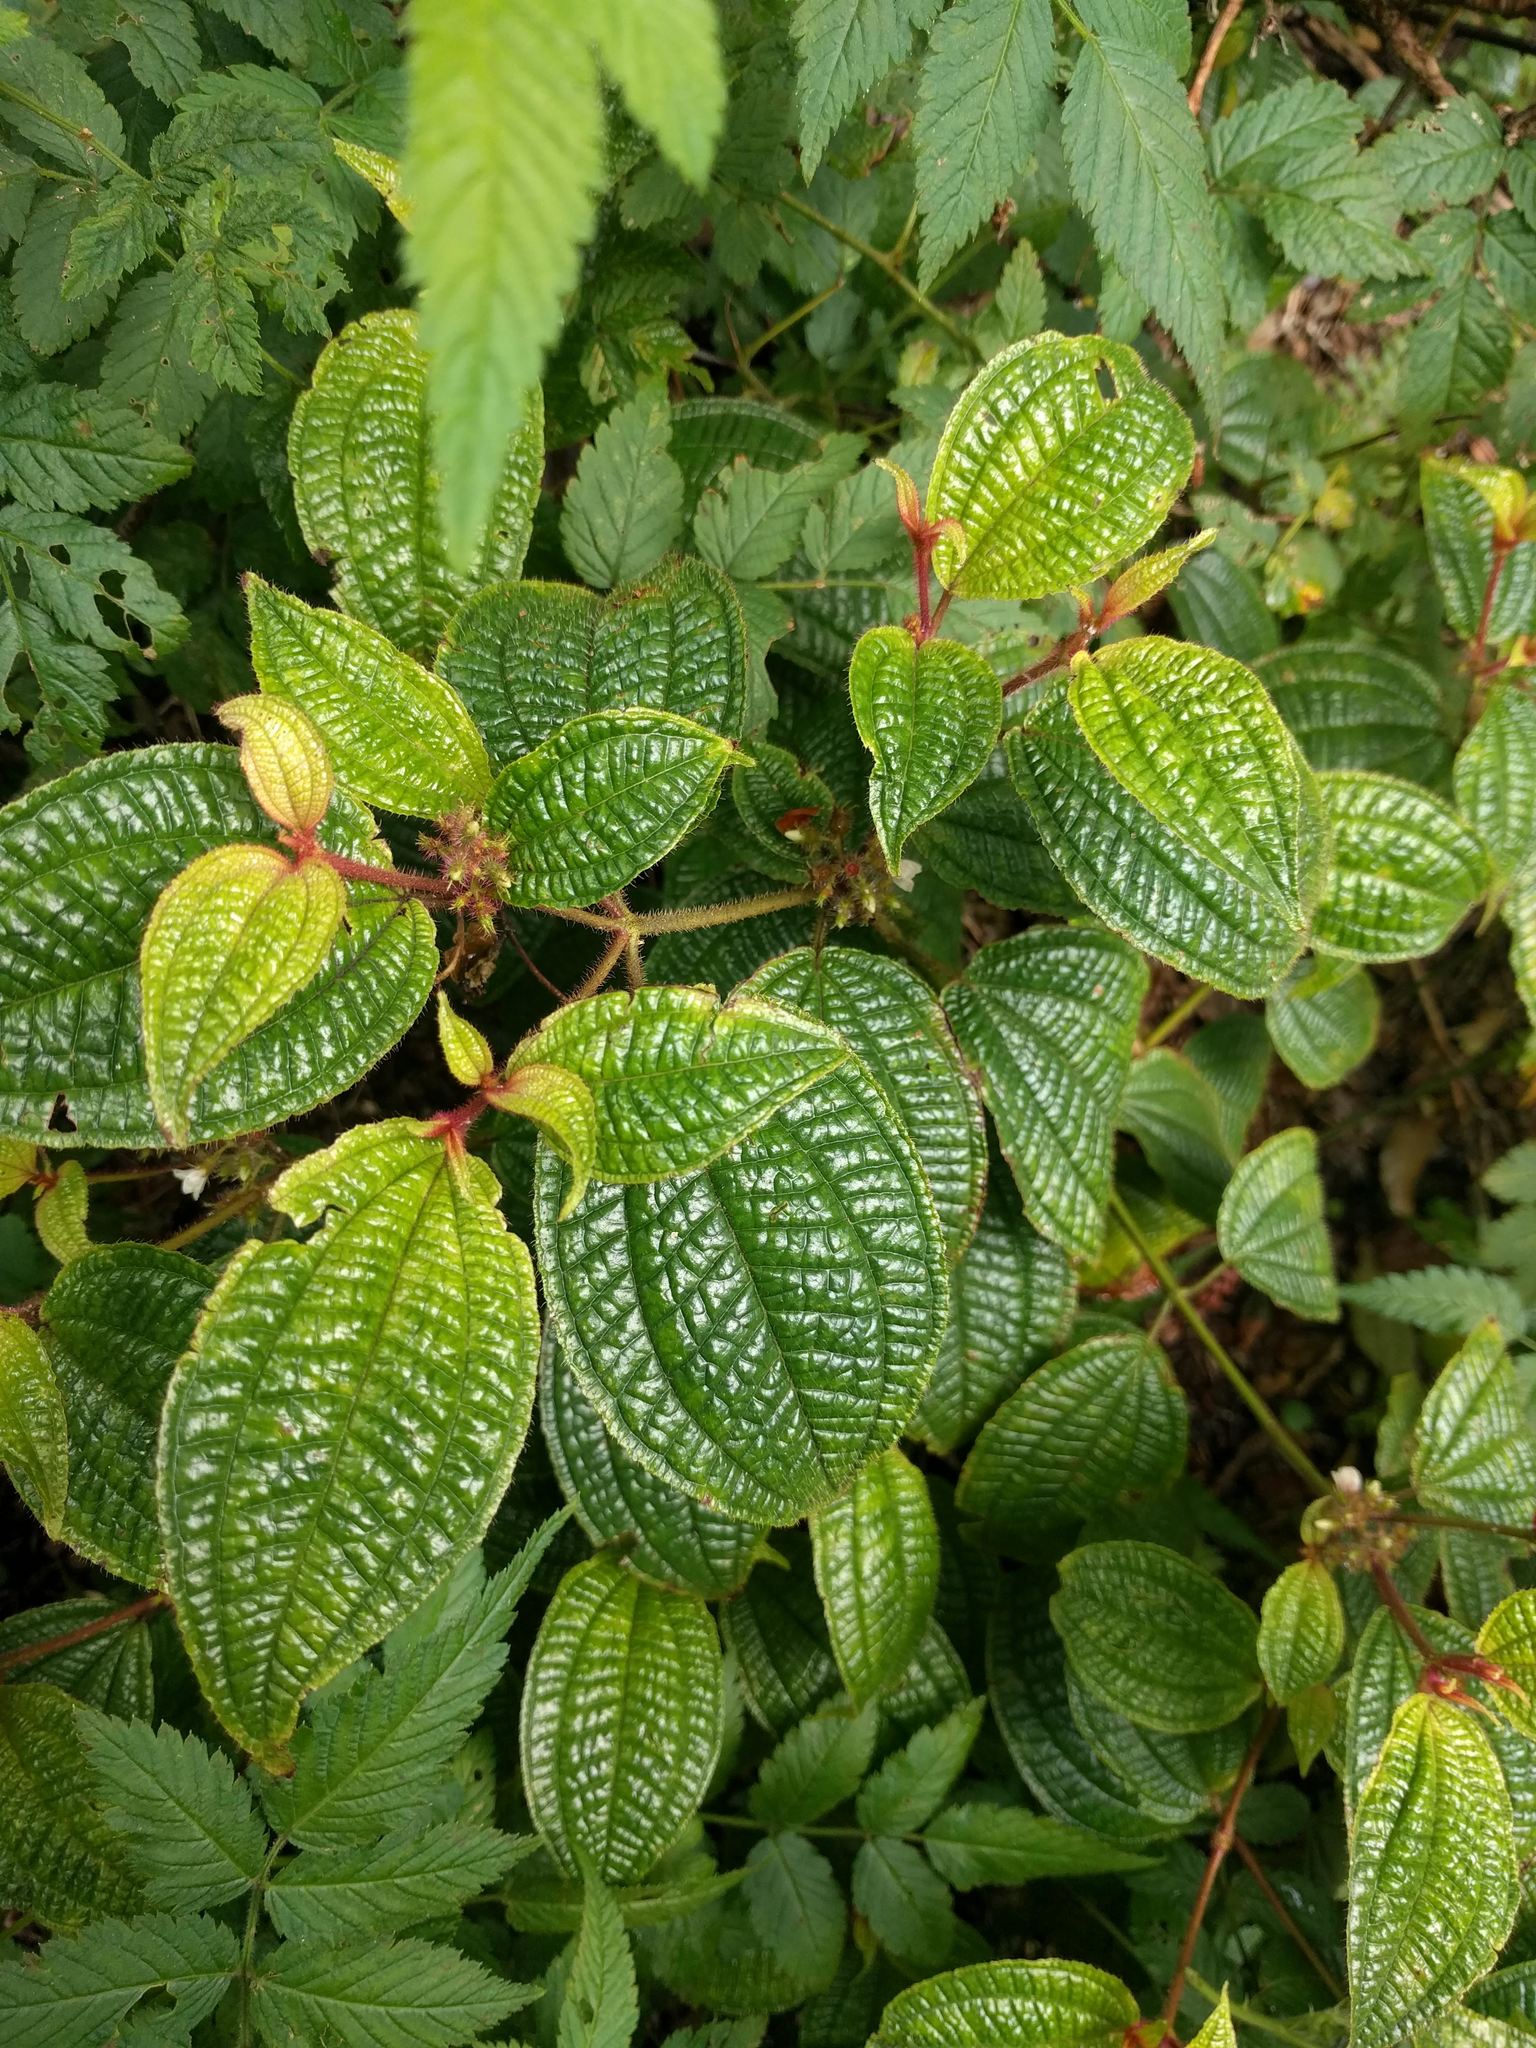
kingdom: Plantae
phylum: Tracheophyta
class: Magnoliopsida
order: Myrtales
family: Melastomataceae
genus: Miconia
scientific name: Miconia crenata
